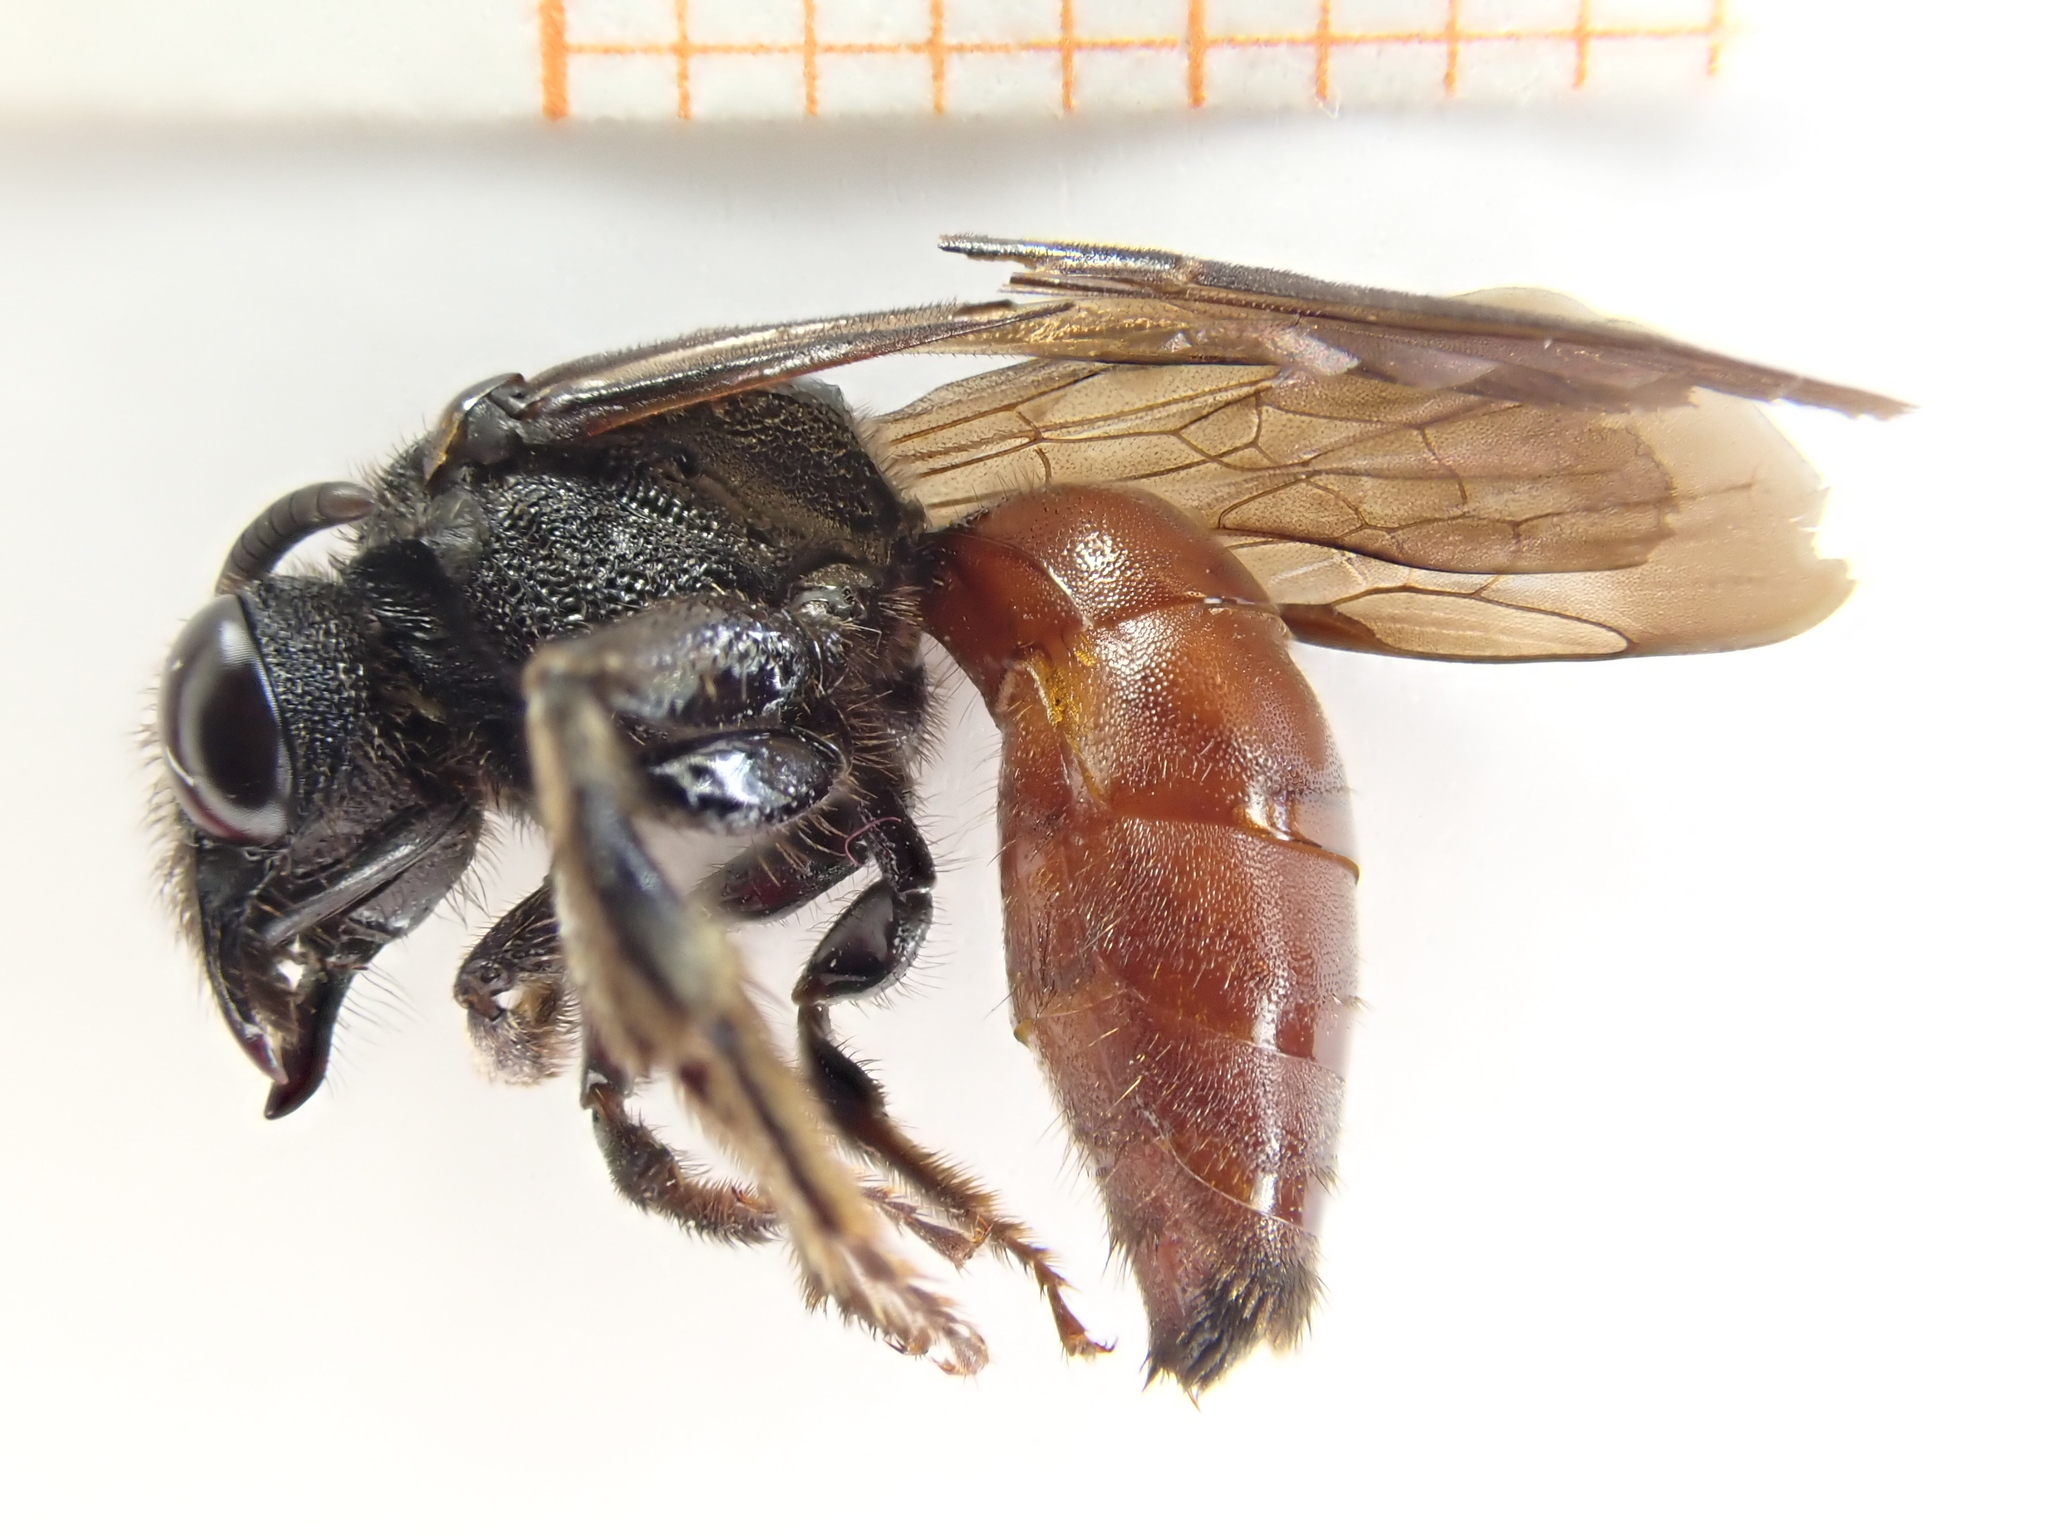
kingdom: Animalia
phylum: Arthropoda
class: Insecta
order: Hymenoptera
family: Halictidae
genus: Sphecodes
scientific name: Sphecodes albilabris
